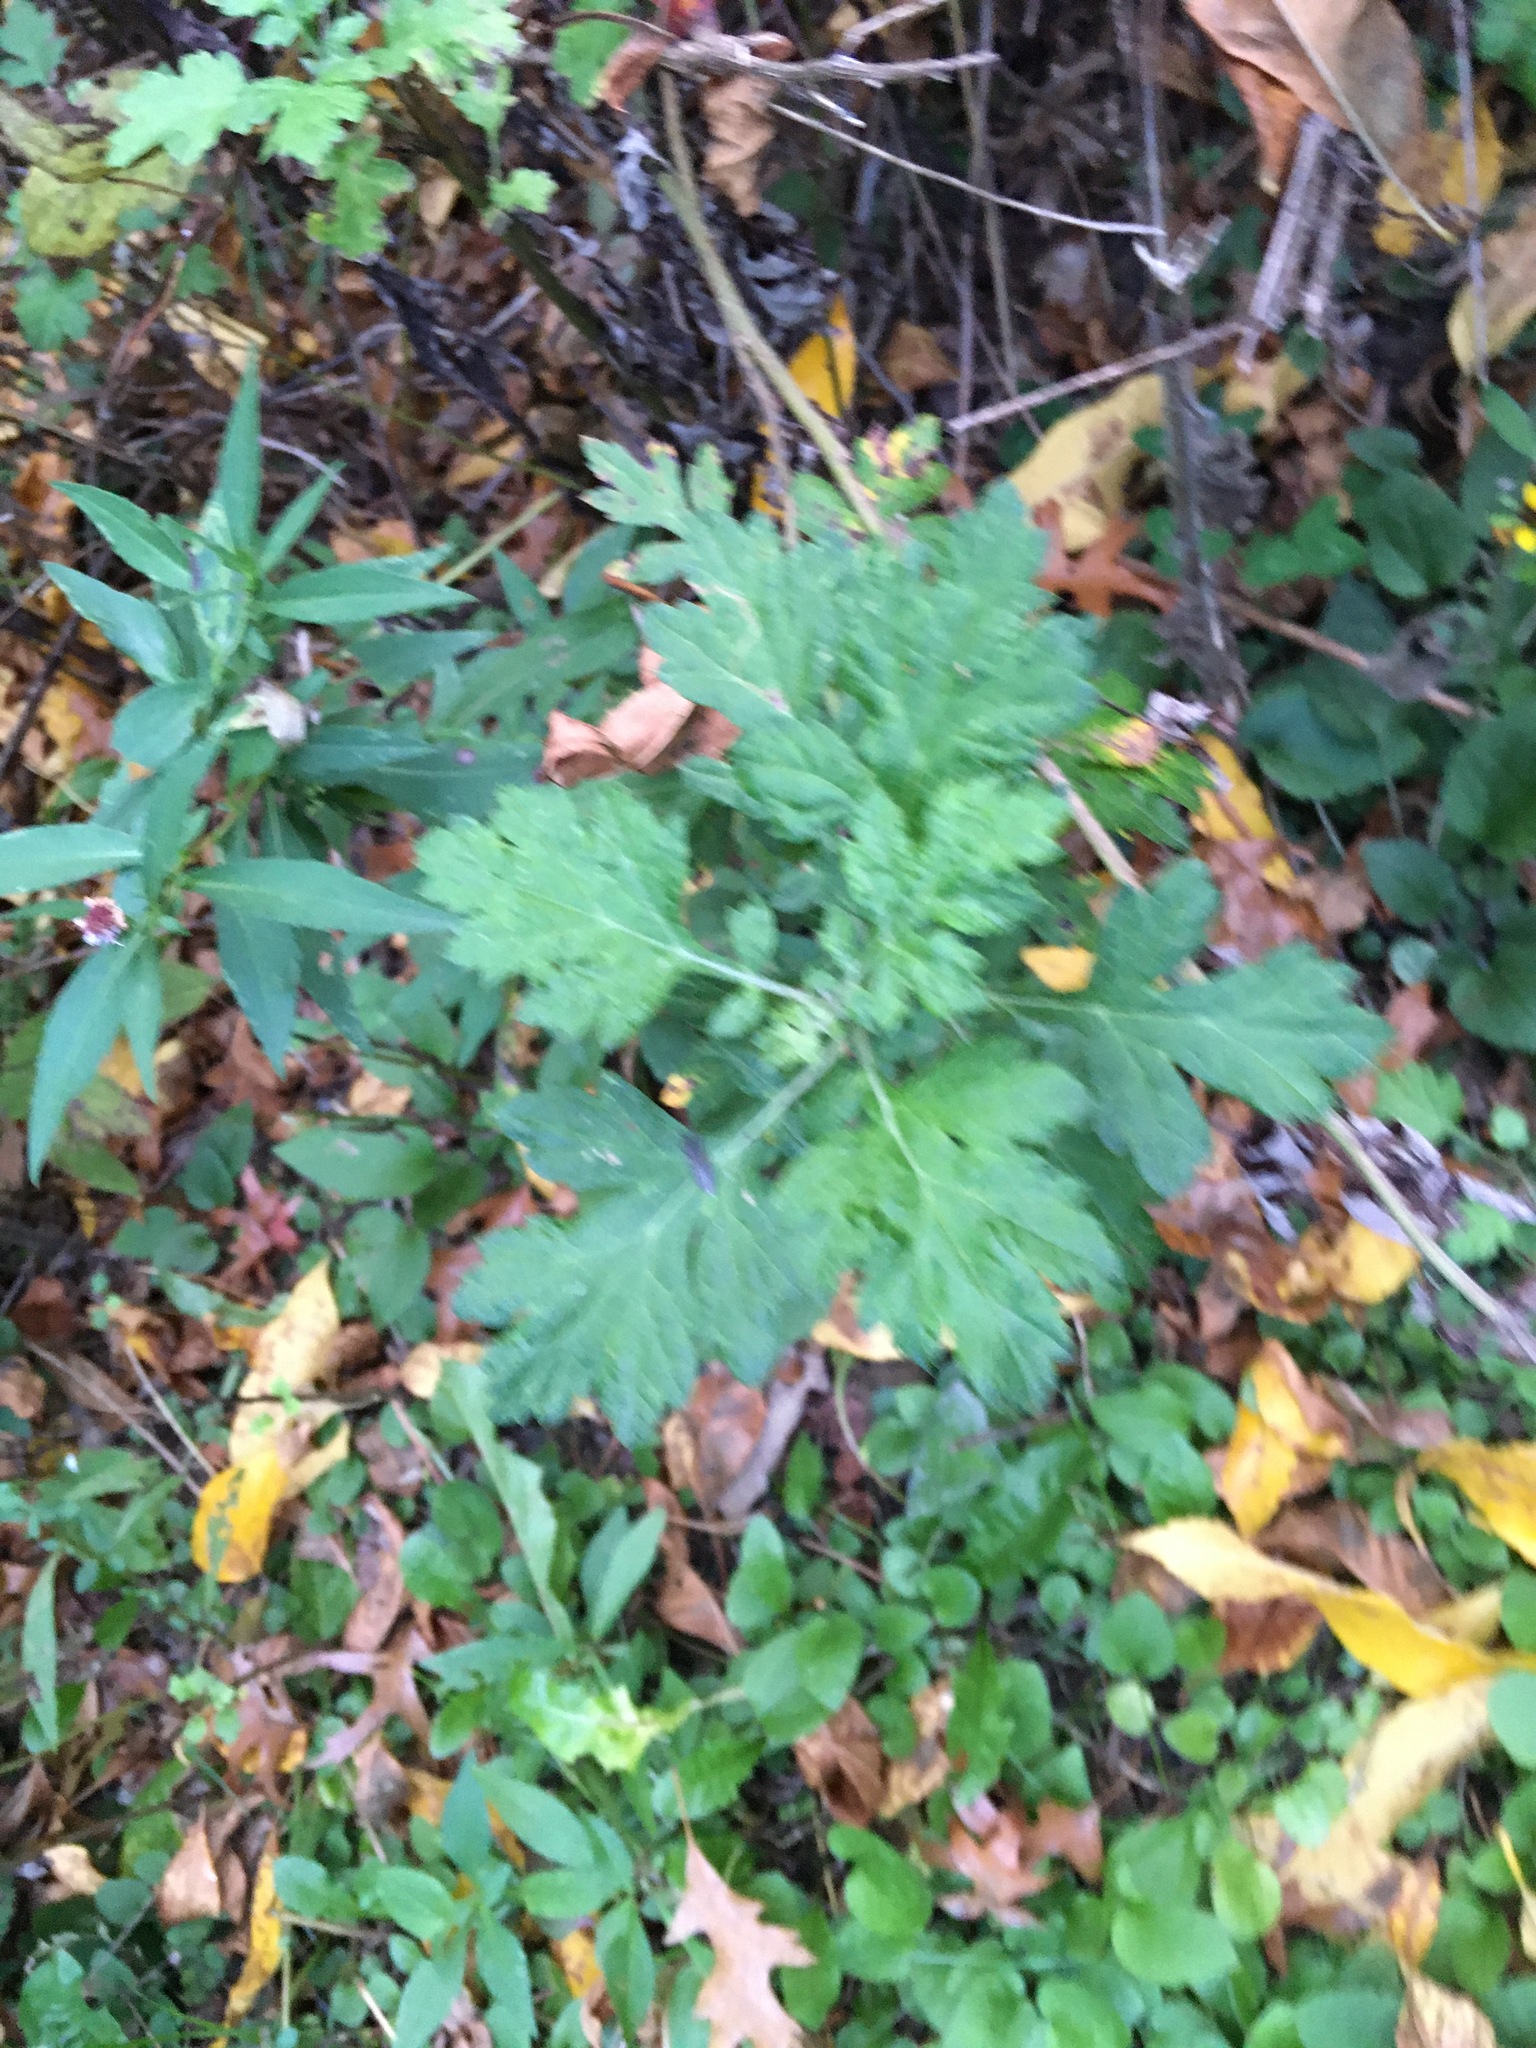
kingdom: Plantae
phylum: Tracheophyta
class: Magnoliopsida
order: Asterales
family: Asteraceae
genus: Artemisia
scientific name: Artemisia vulgaris
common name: Mugwort
